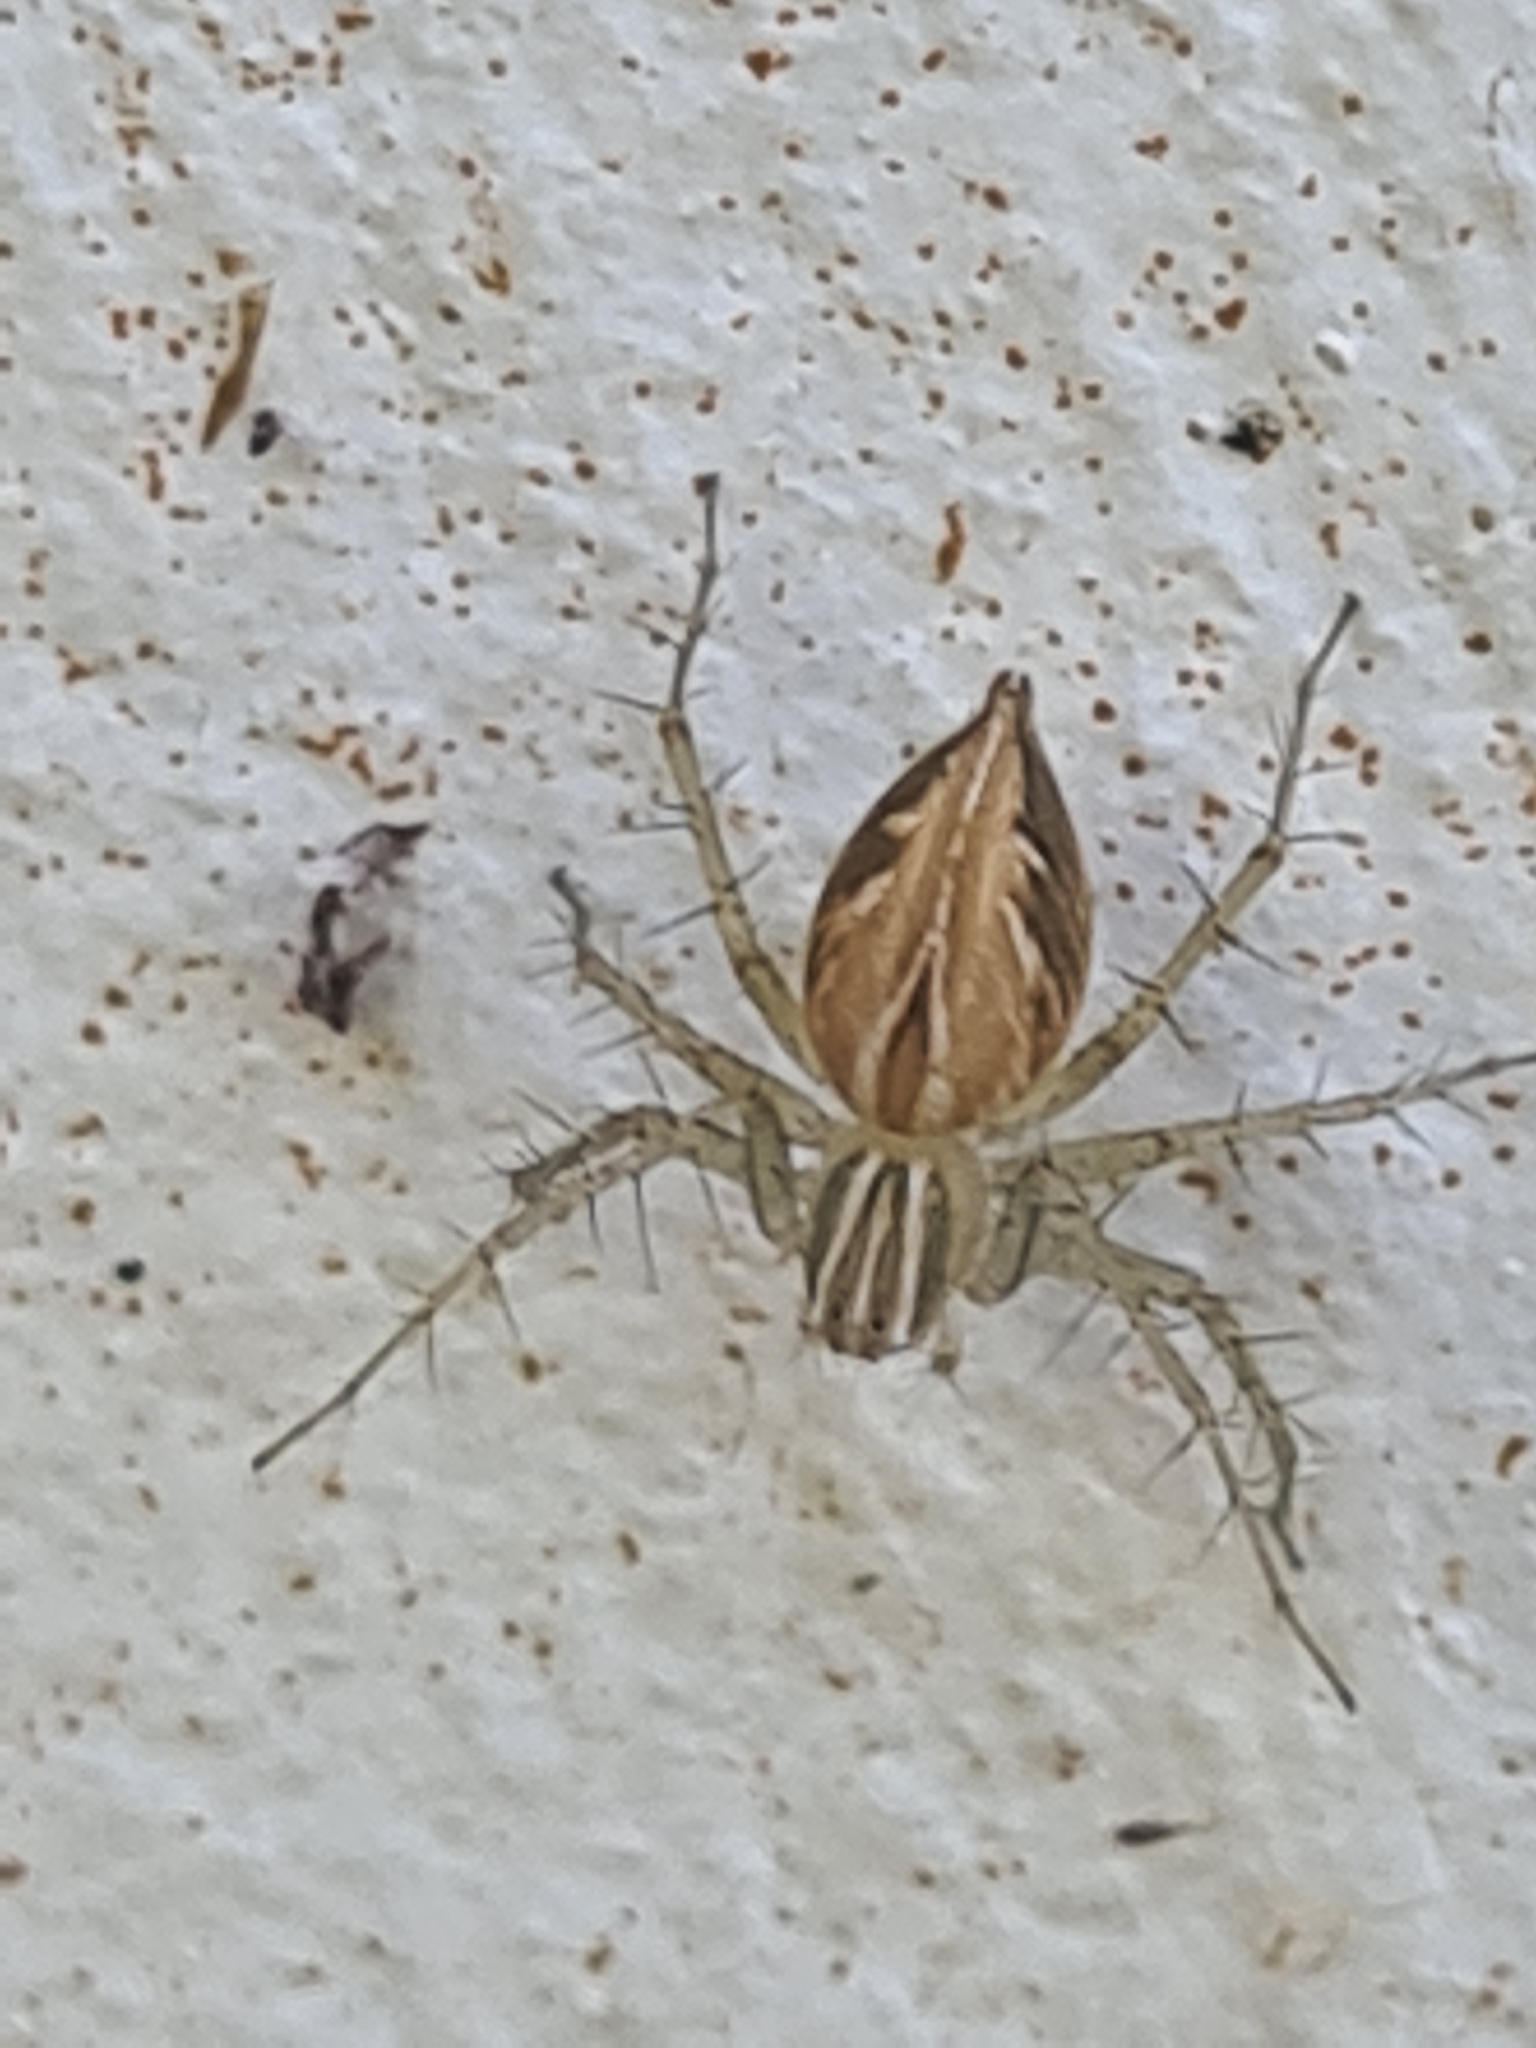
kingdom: Animalia
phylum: Arthropoda
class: Arachnida
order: Araneae
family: Oxyopidae
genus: Oxyopes
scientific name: Oxyopes salticus
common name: Lynx spiders
